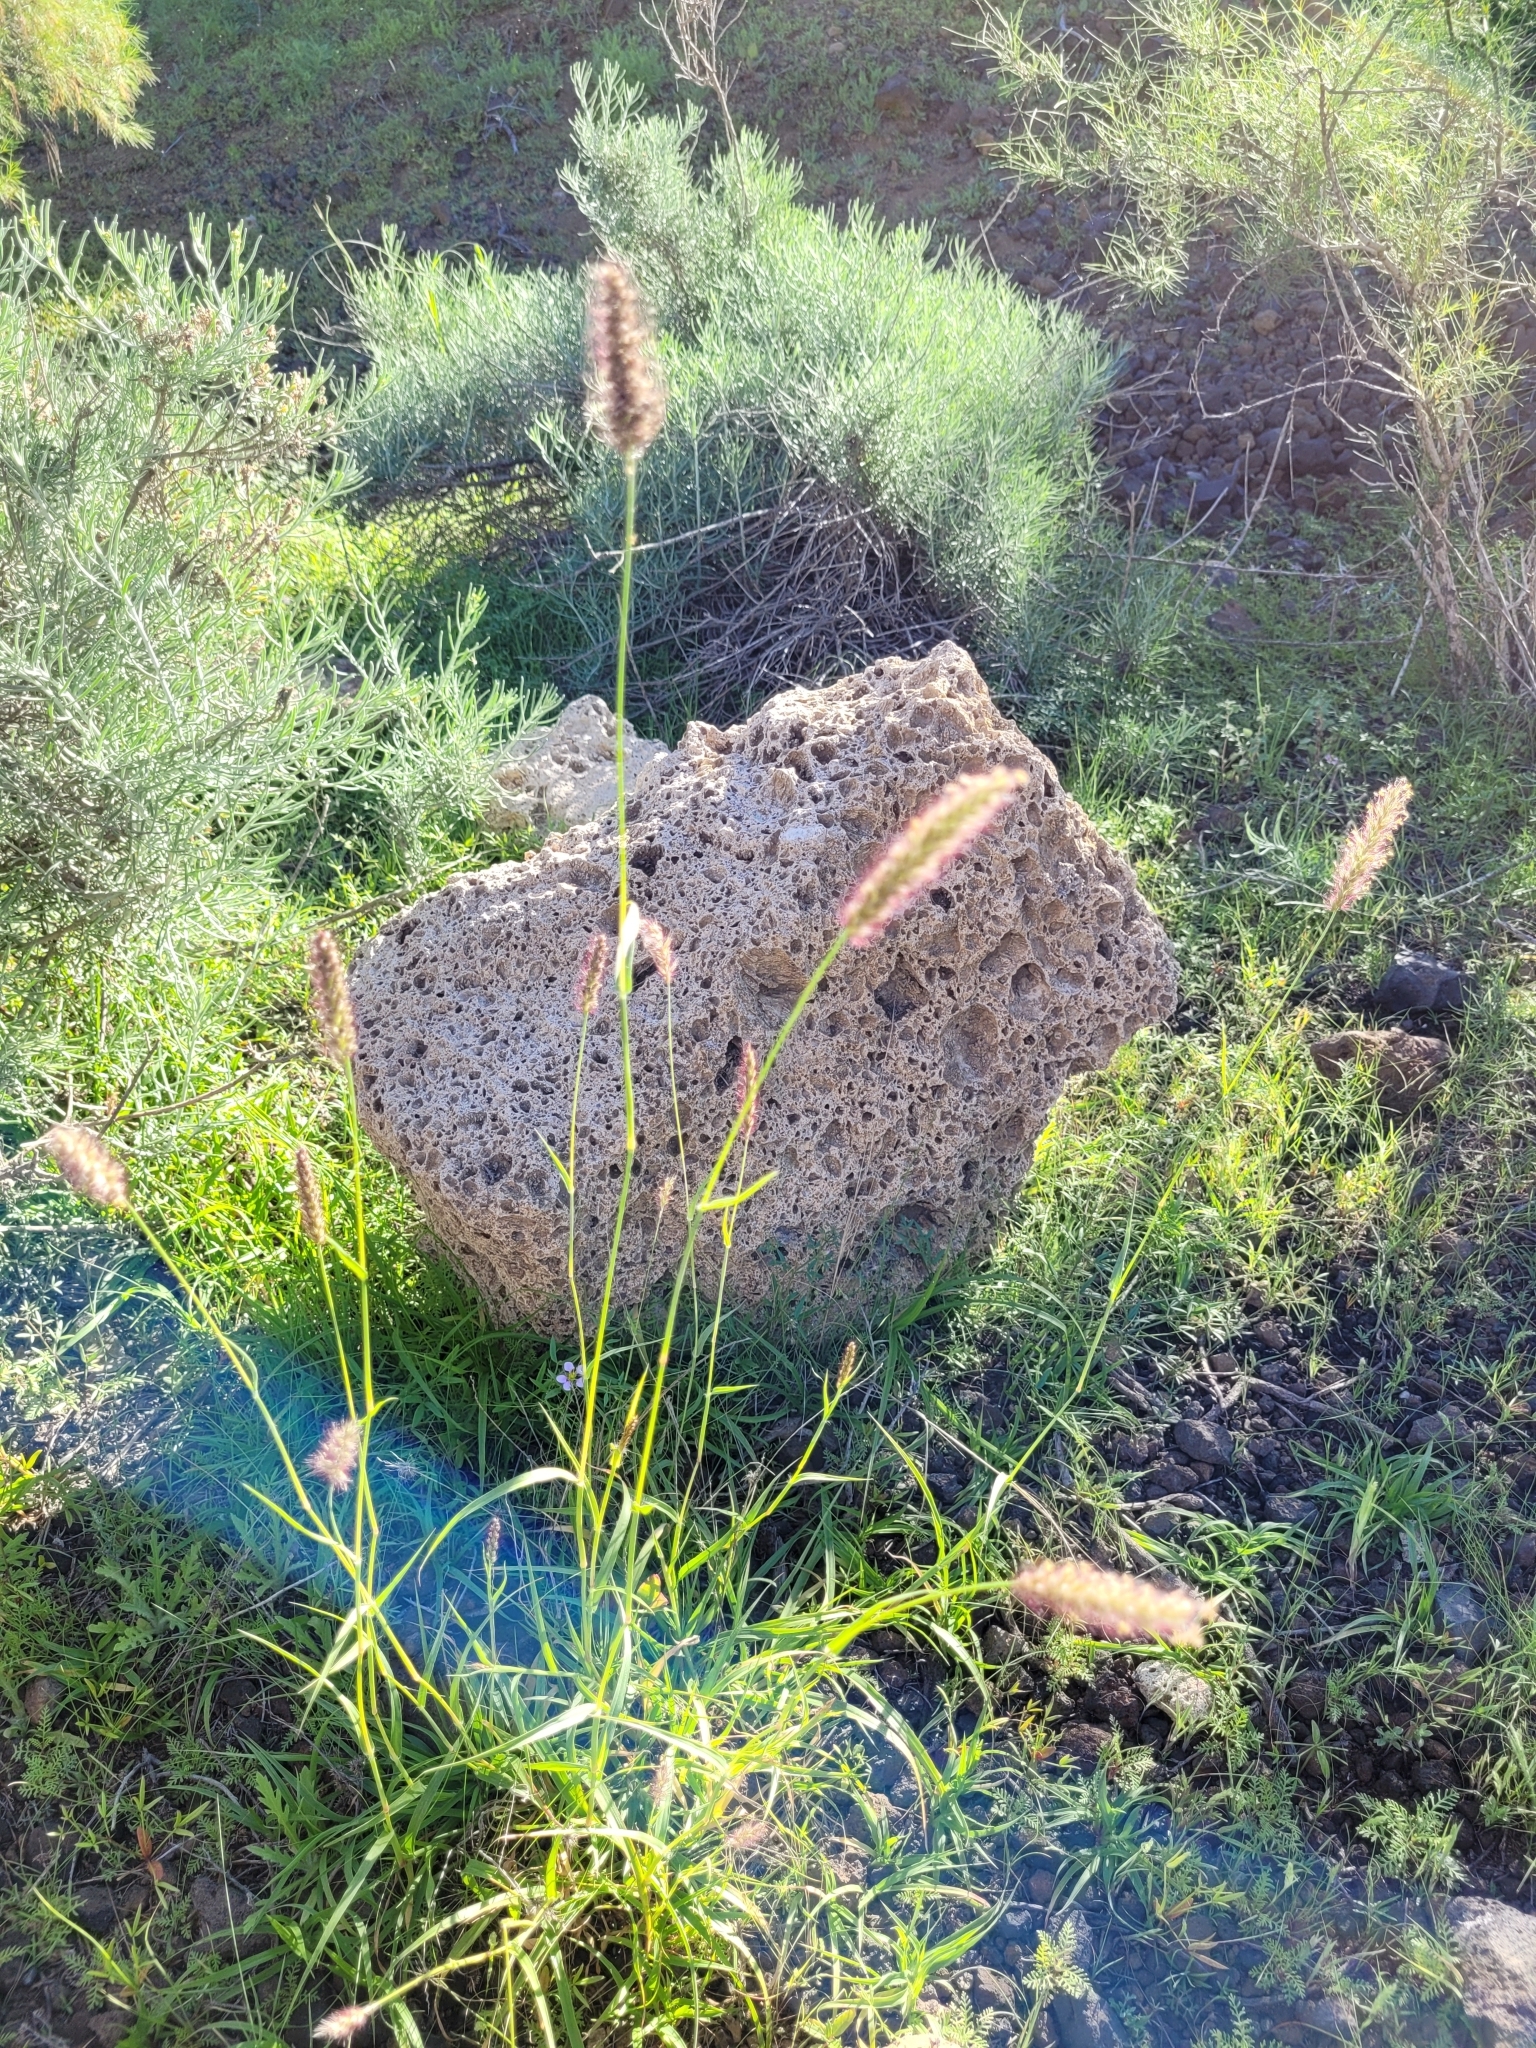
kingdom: Plantae
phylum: Tracheophyta
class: Liliopsida
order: Poales
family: Poaceae
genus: Cenchrus
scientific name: Cenchrus ciliaris
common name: Buffelgrass
